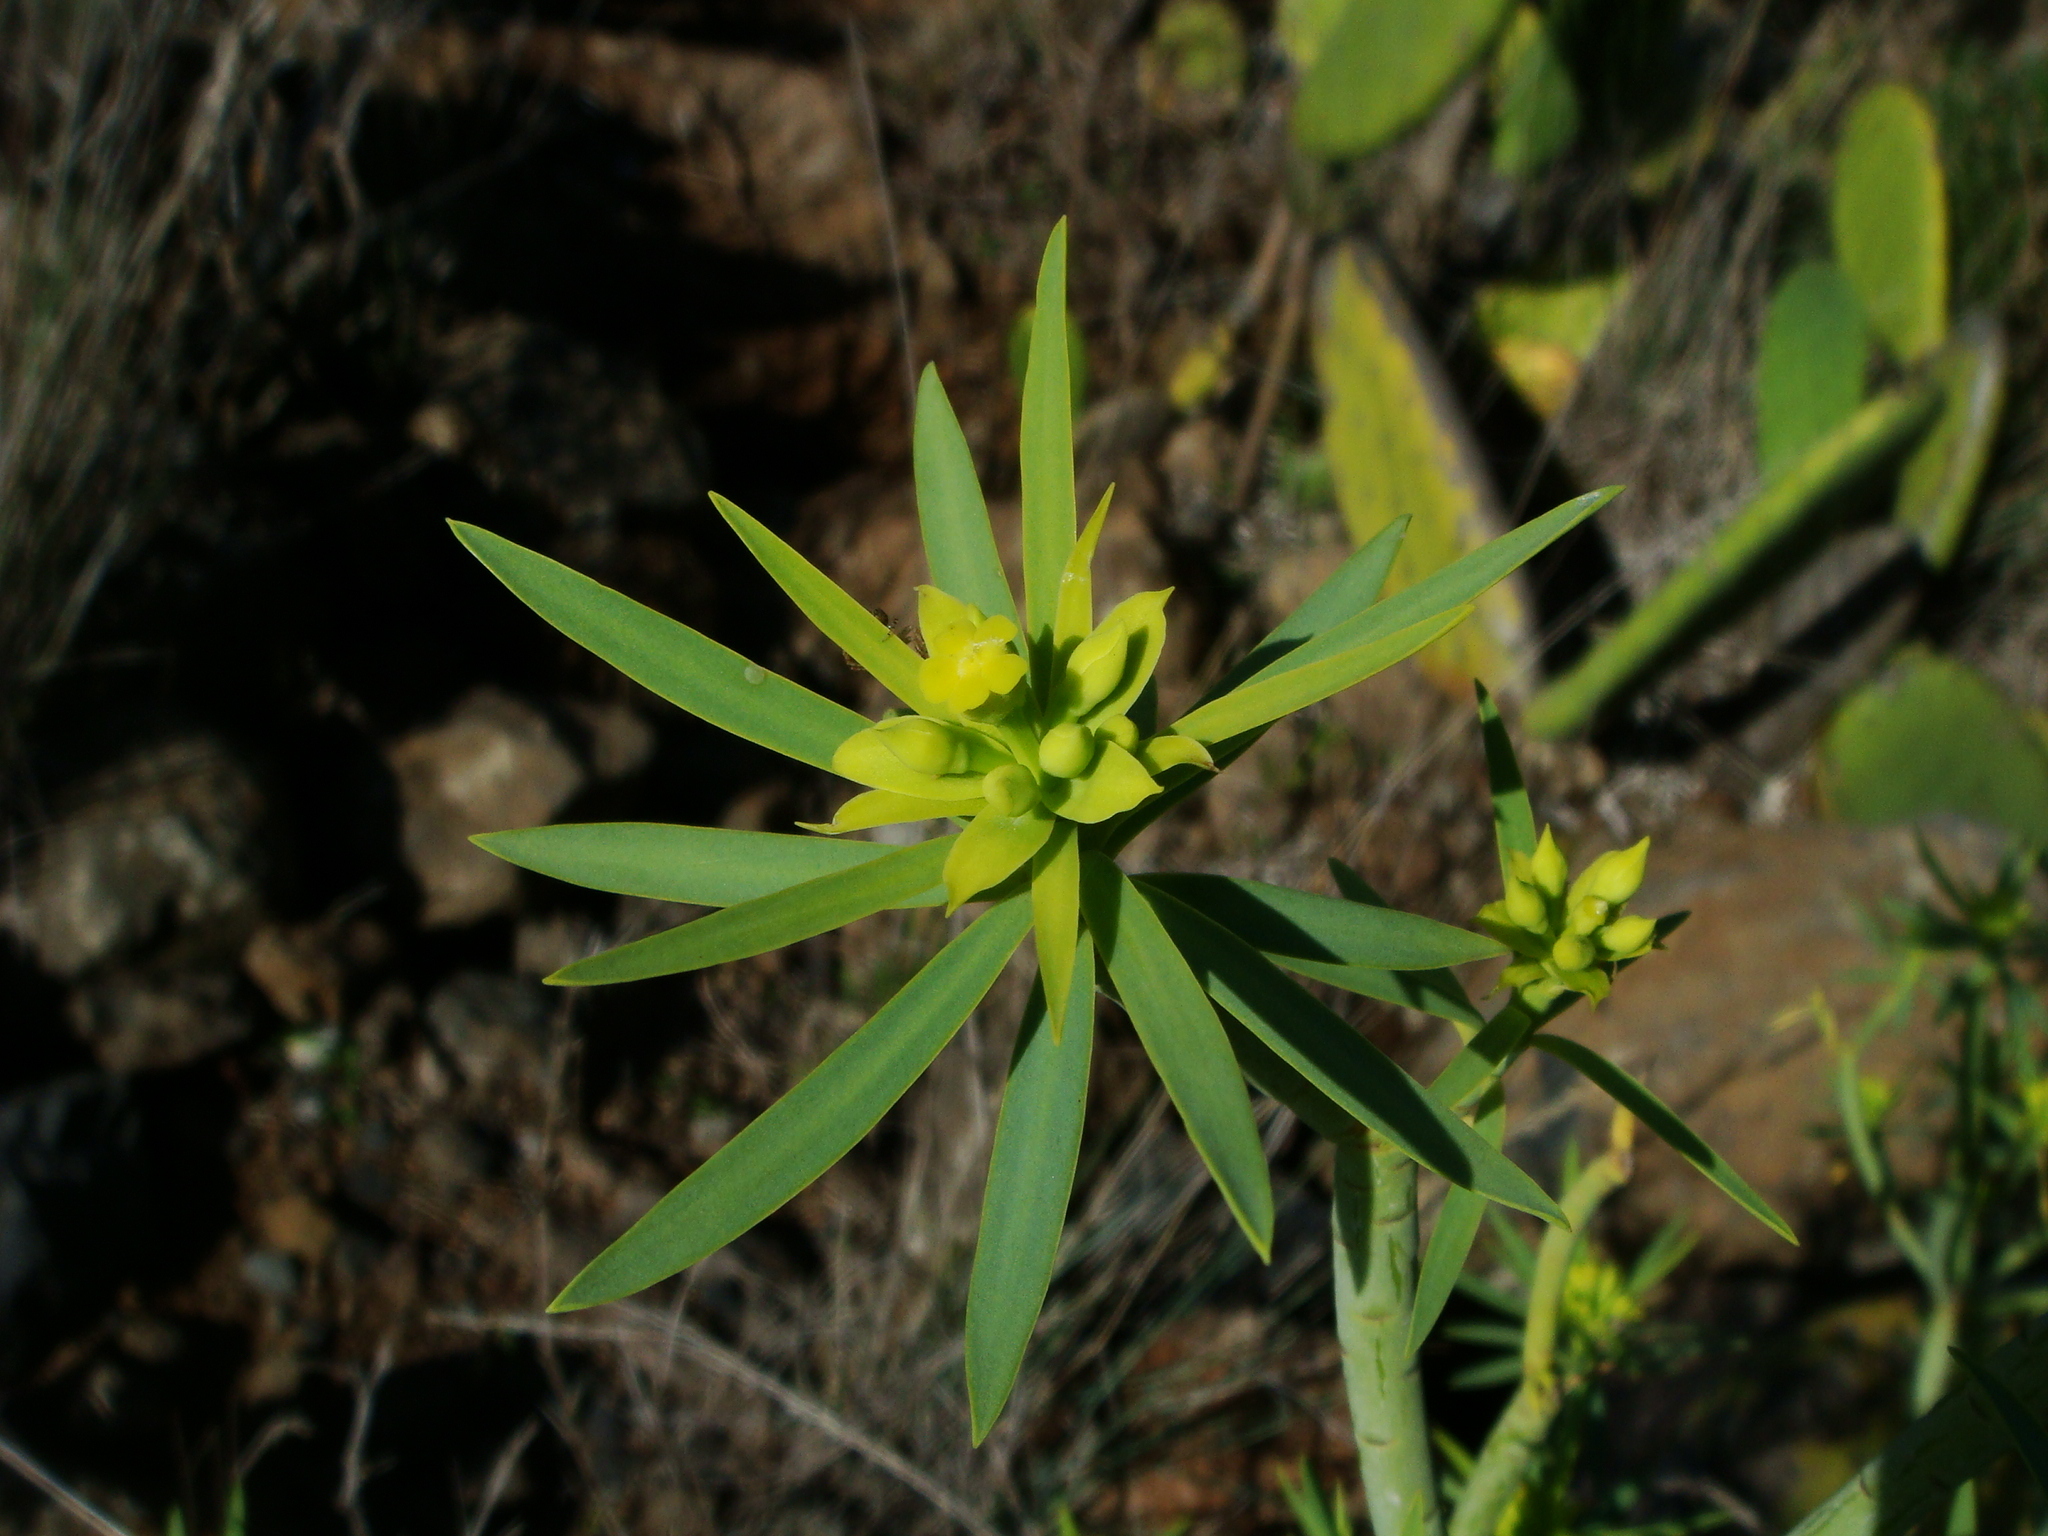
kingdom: Plantae
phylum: Tracheophyta
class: Magnoliopsida
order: Malpighiales
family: Euphorbiaceae
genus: Euphorbia
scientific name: Euphorbia lamarckii
